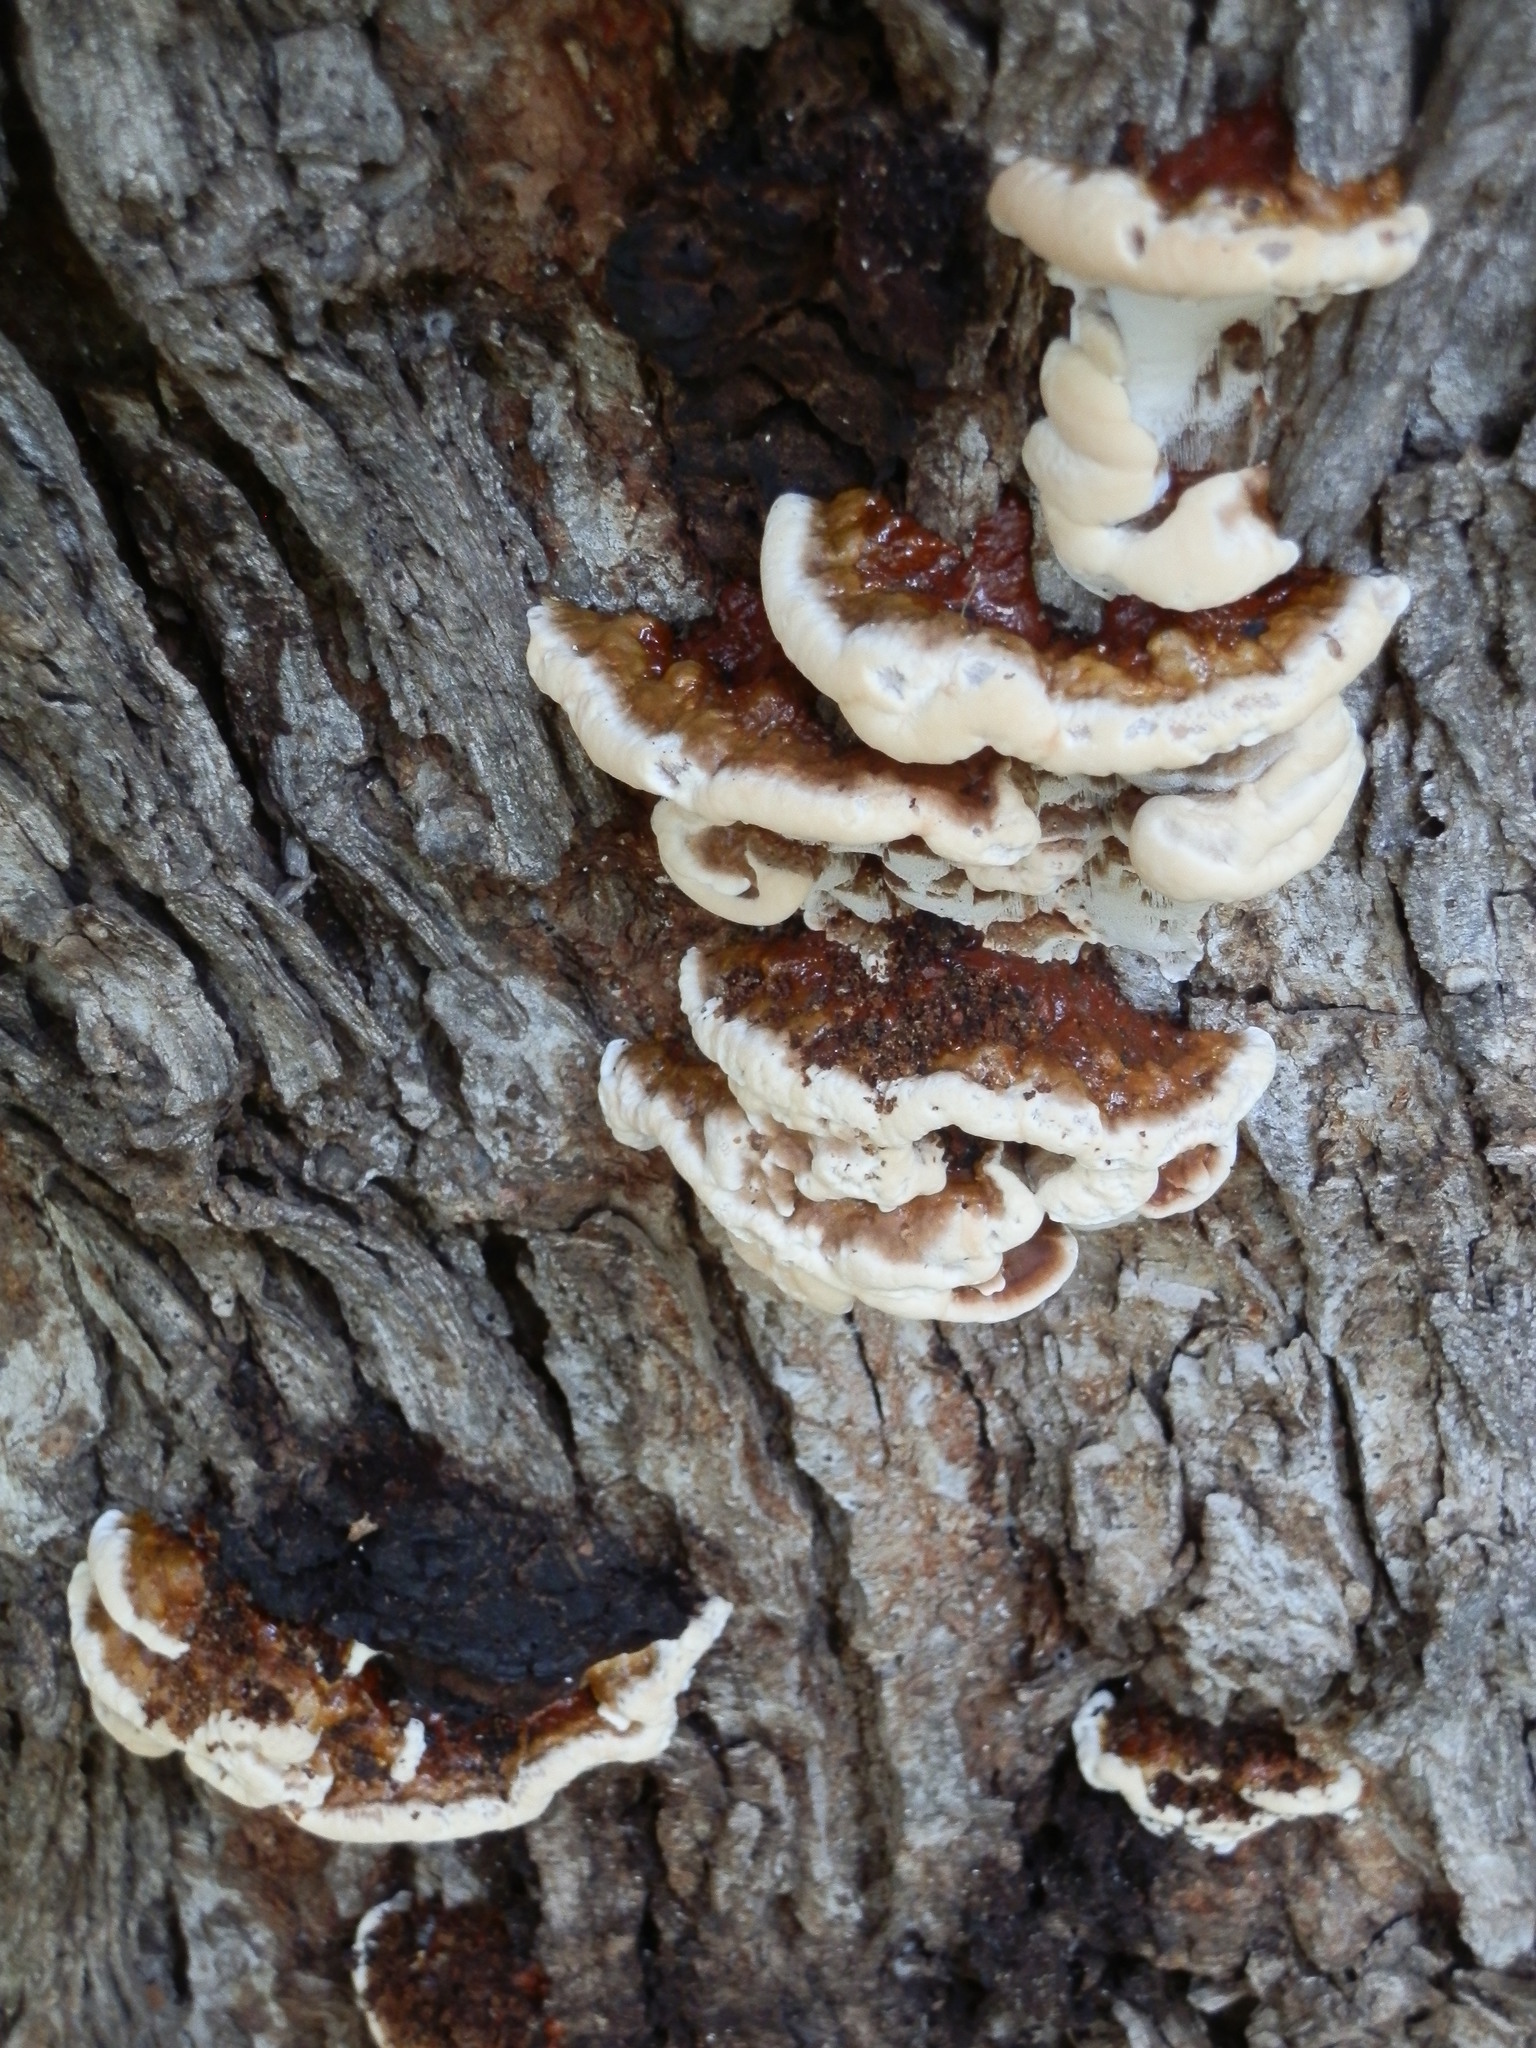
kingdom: Fungi
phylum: Basidiomycota
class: Agaricomycetes
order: Polyporales
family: Polyporaceae
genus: Ganoderma
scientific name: Ganoderma resinaceum
